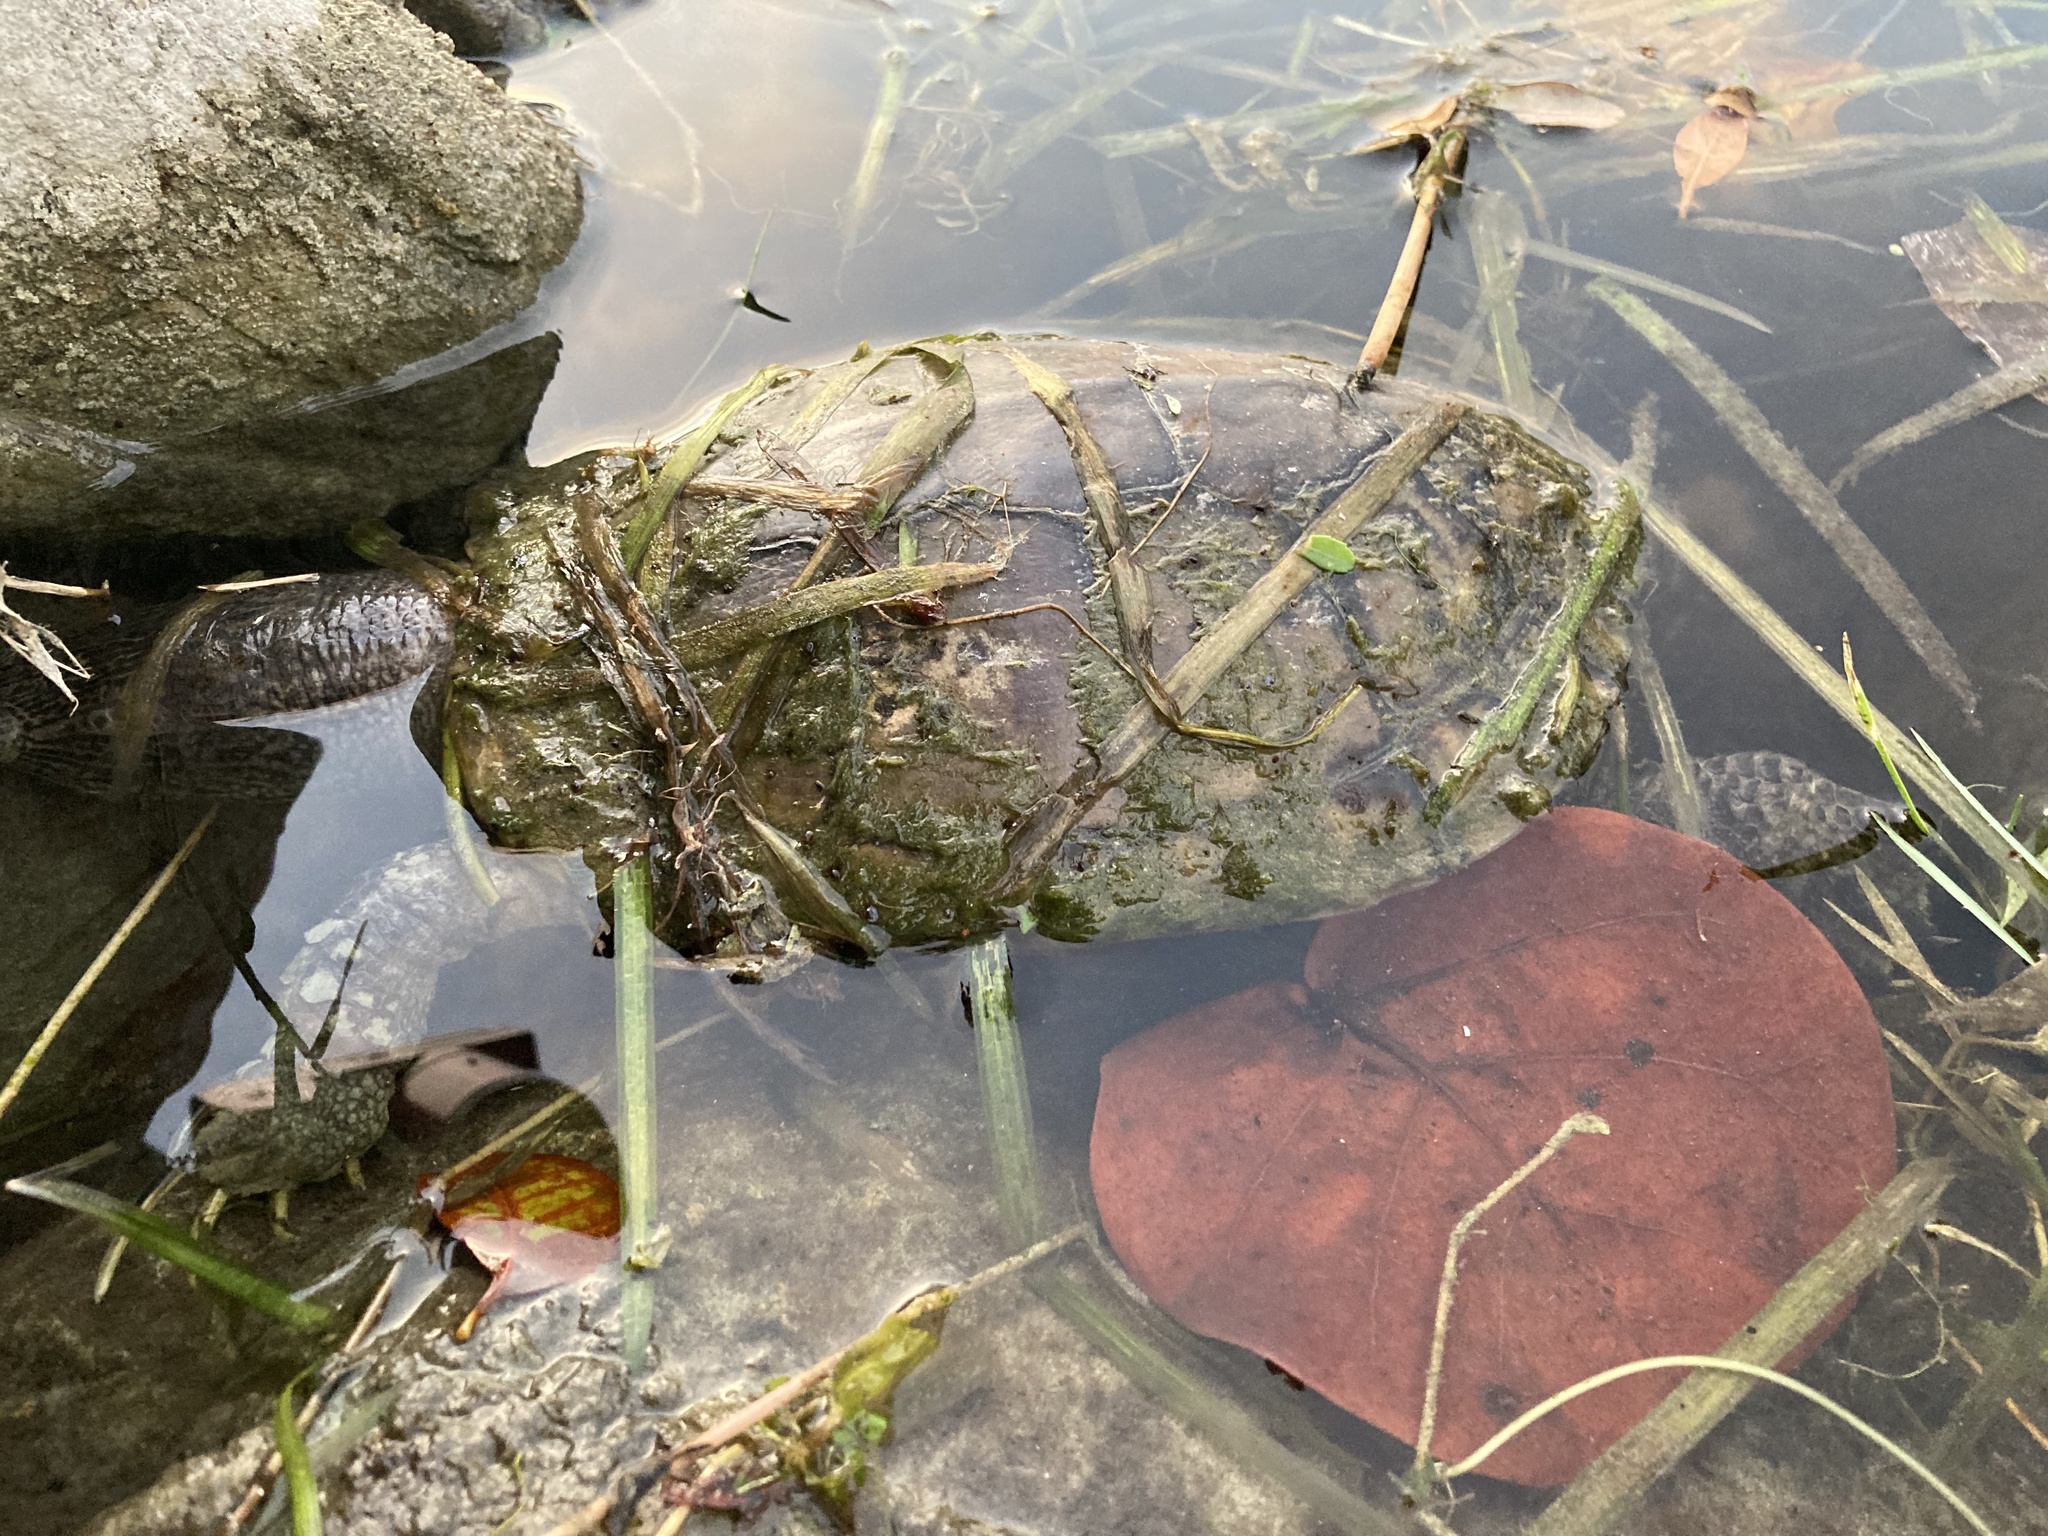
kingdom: Animalia
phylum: Chordata
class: Testudines
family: Emydidae
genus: Trachemys
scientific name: Trachemys scripta
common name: Slider
